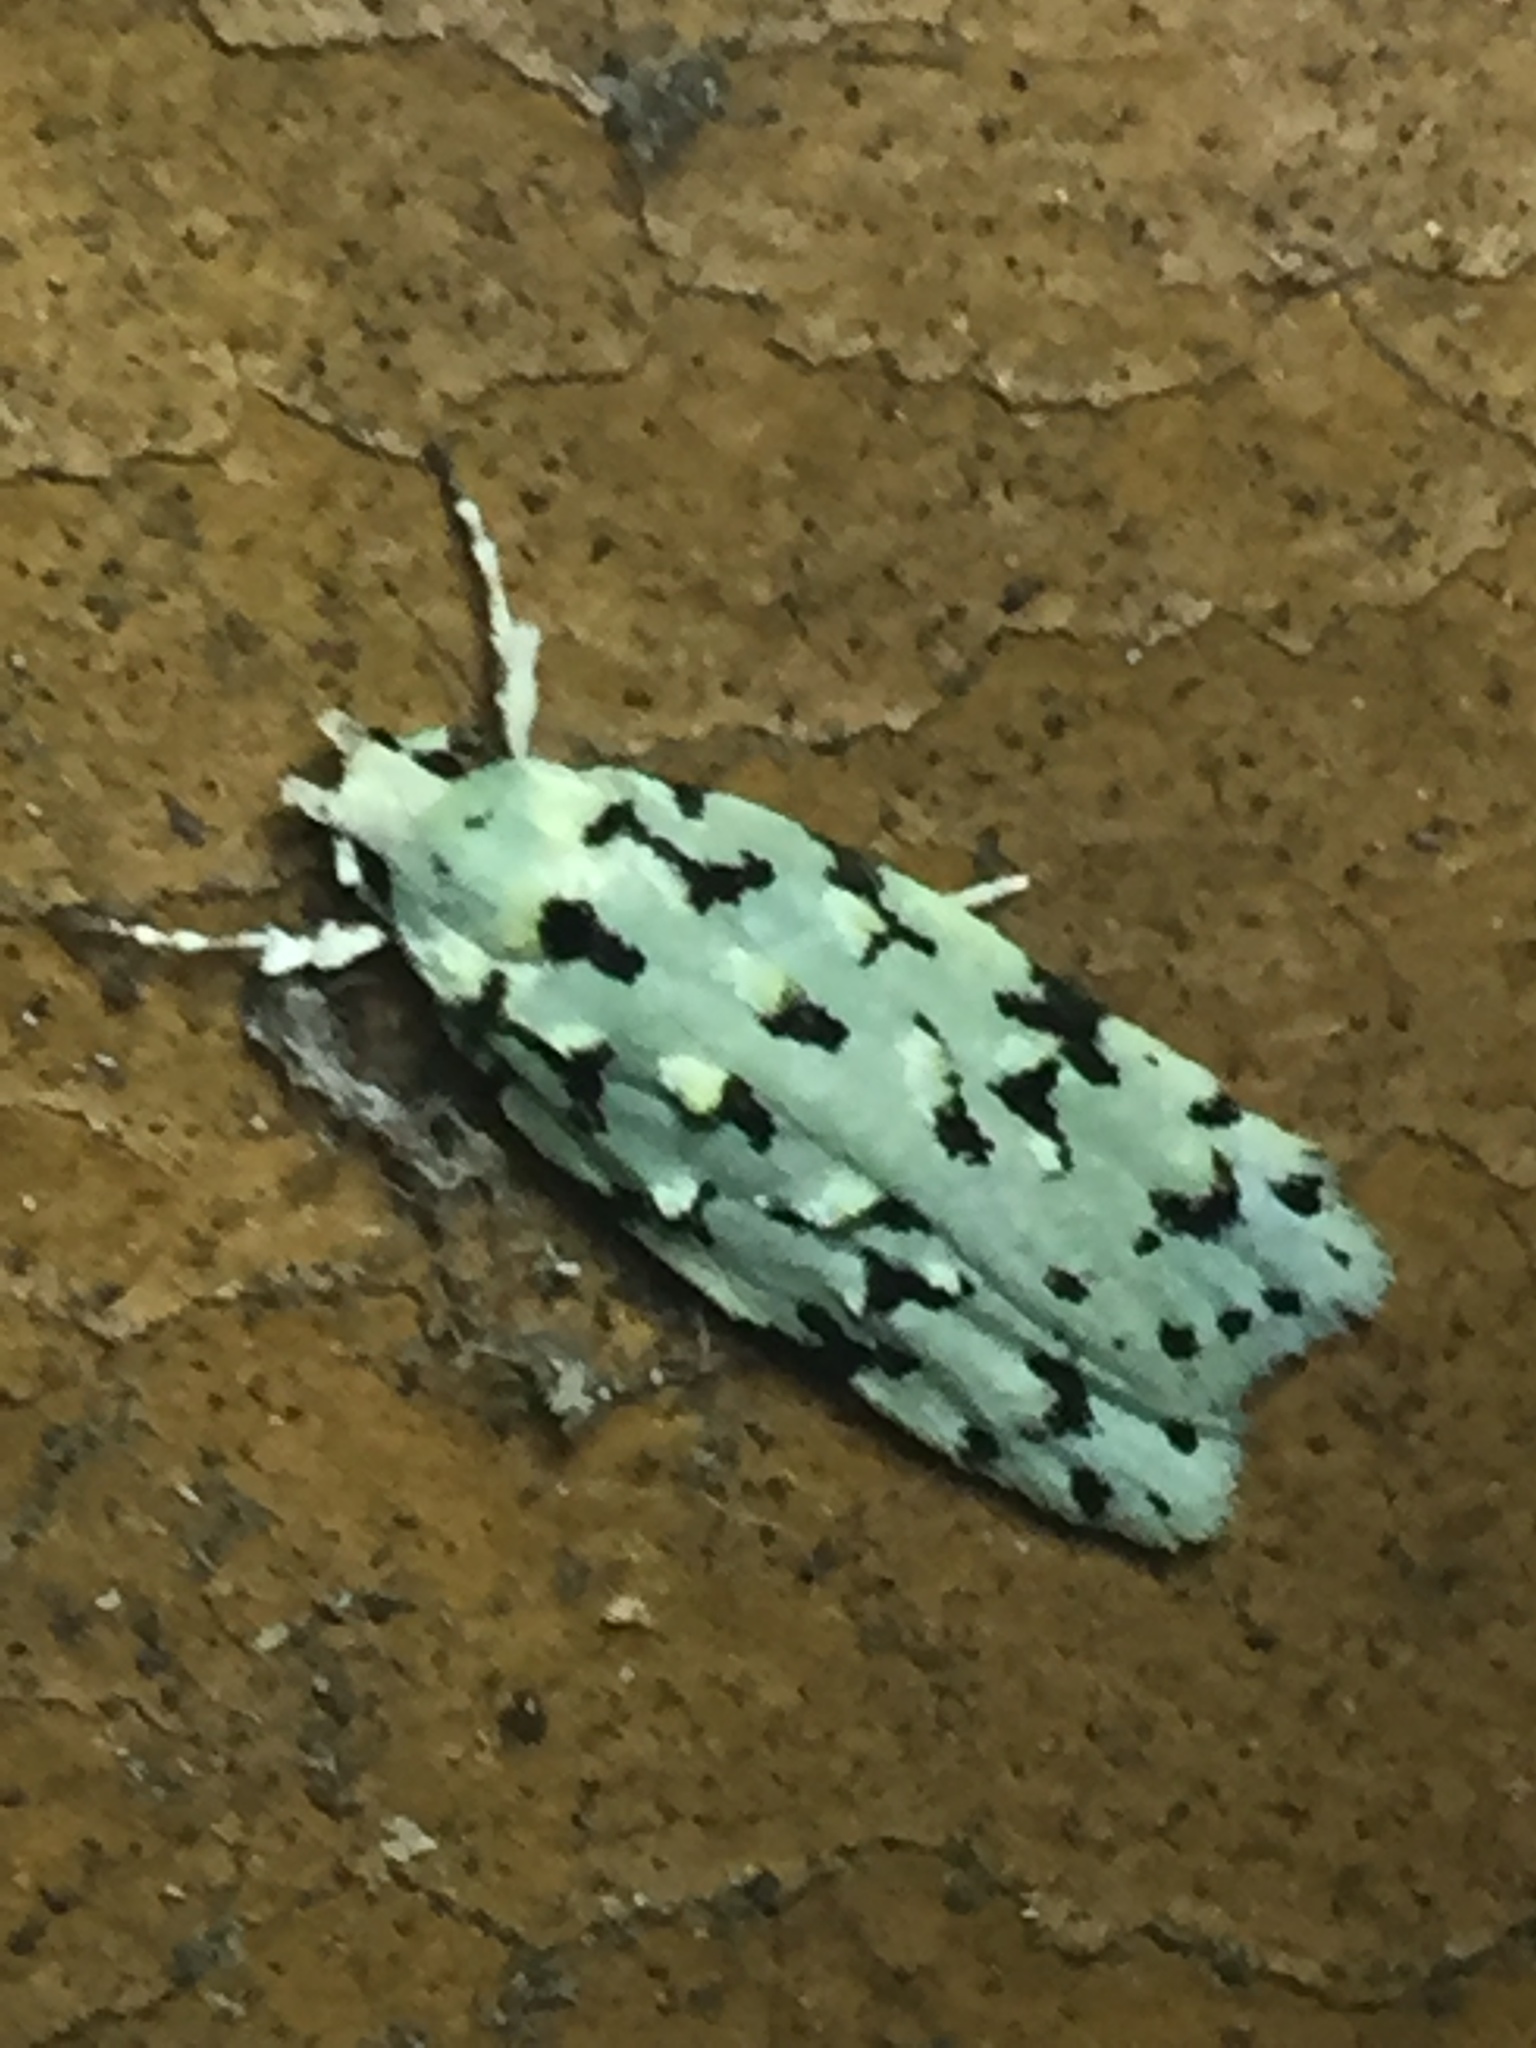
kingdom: Animalia
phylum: Arthropoda
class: Insecta
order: Lepidoptera
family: Oecophoridae
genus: Izatha
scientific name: Izatha peroneanella
